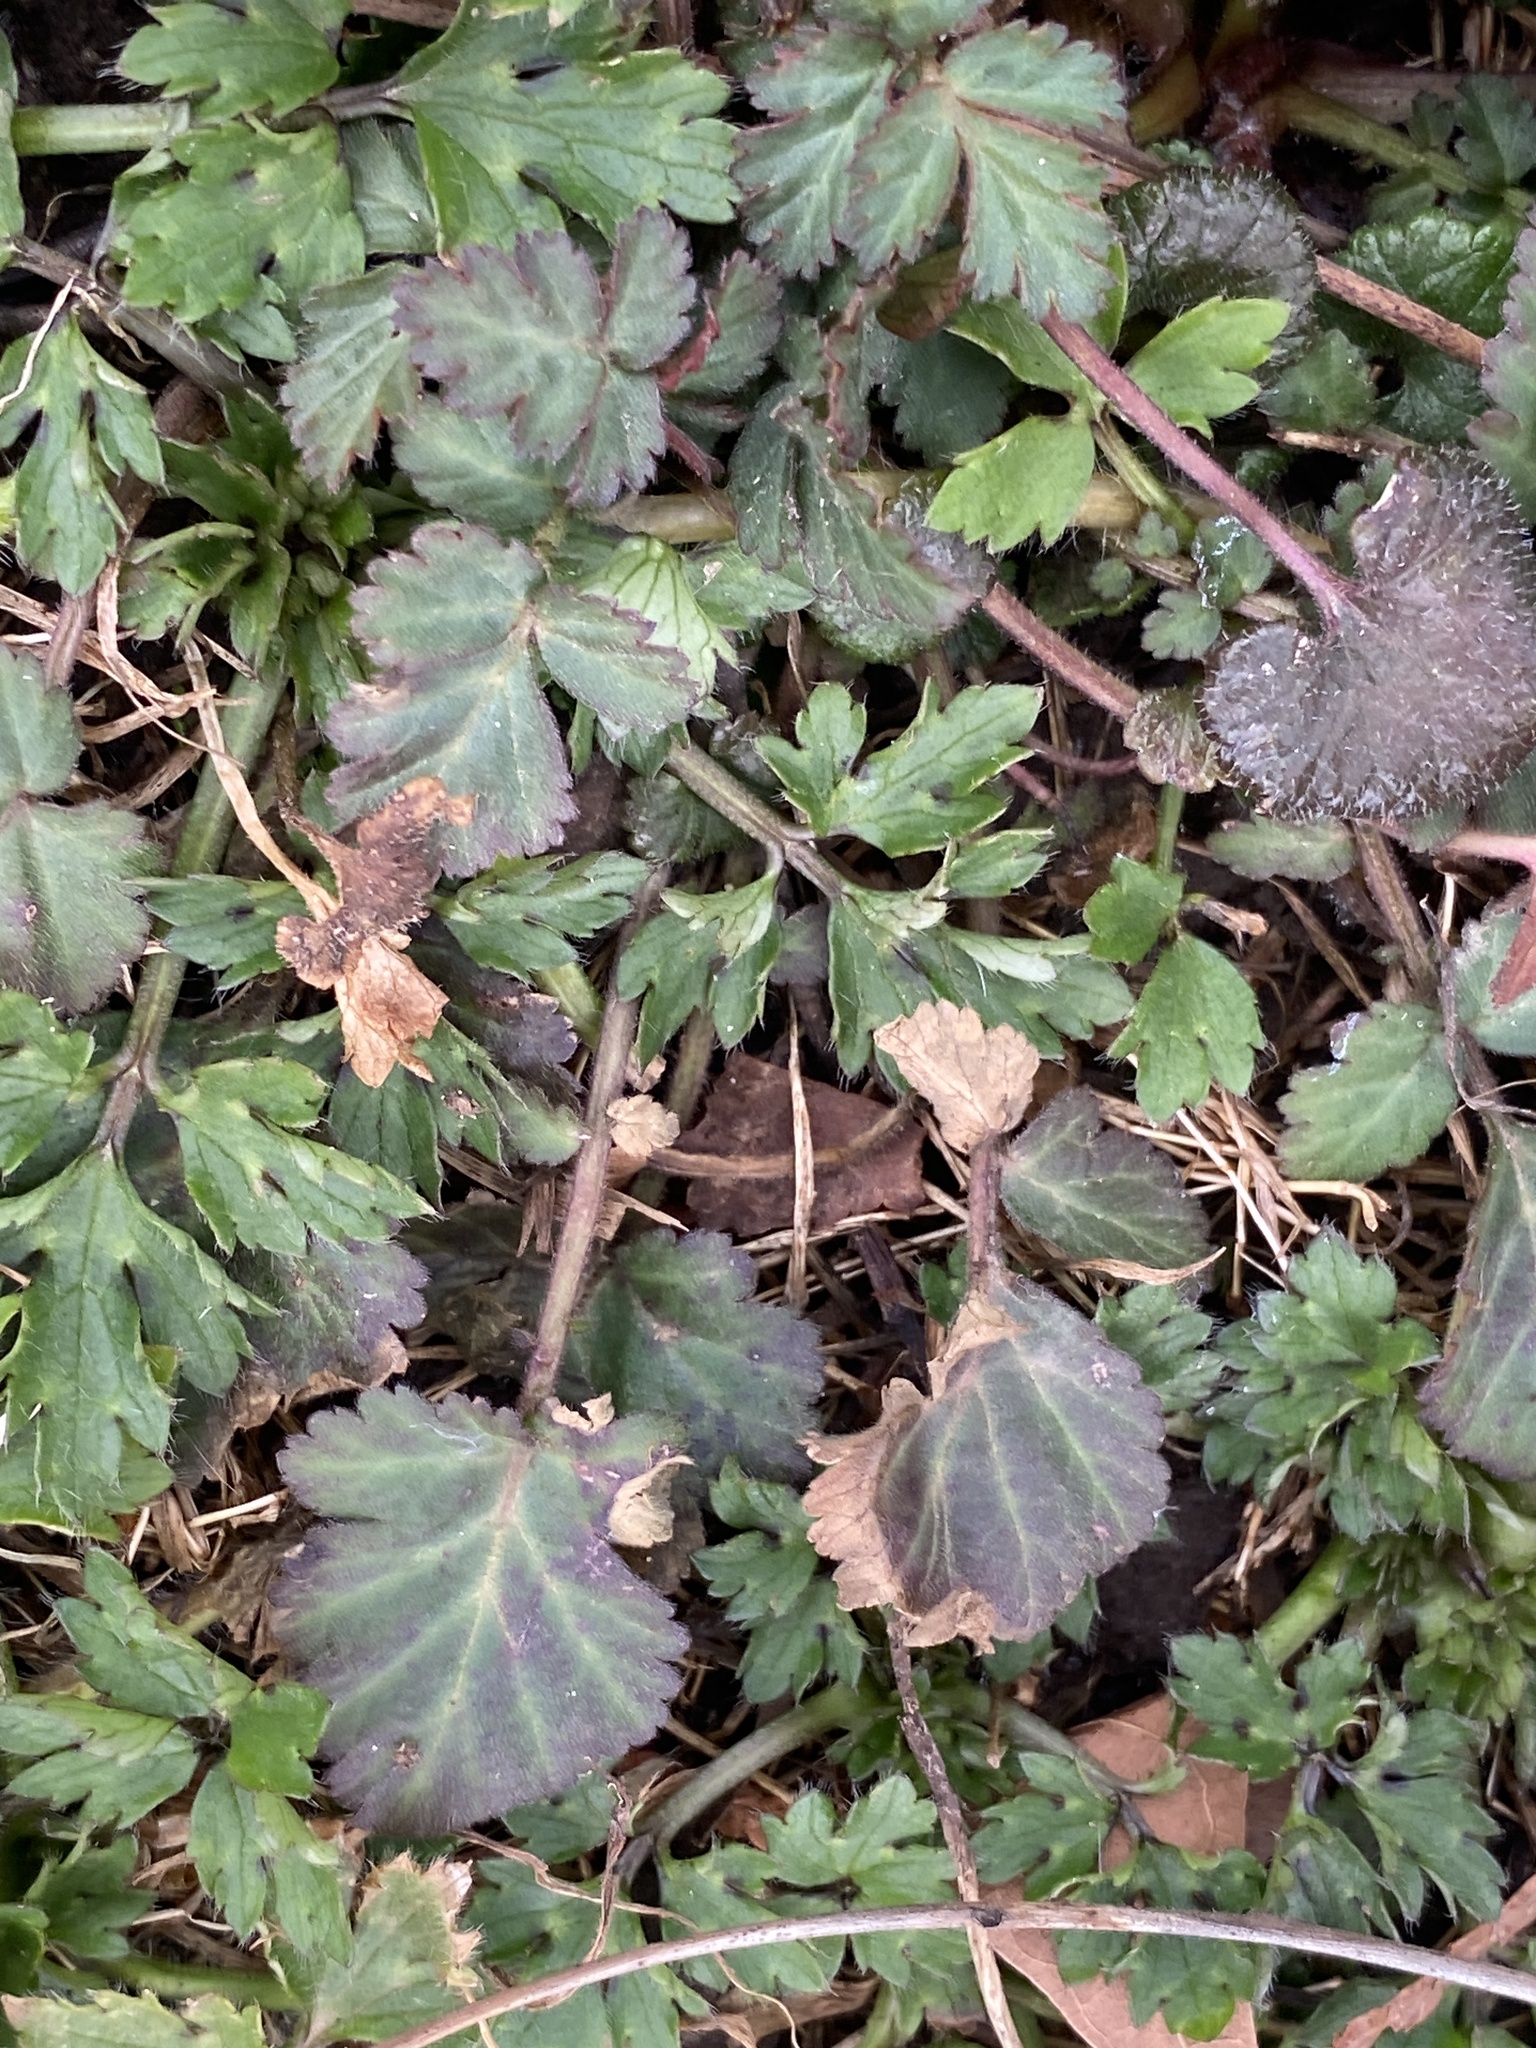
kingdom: Plantae
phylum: Tracheophyta
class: Magnoliopsida
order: Rosales
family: Rosaceae
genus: Geum
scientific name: Geum canadense
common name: White avens
